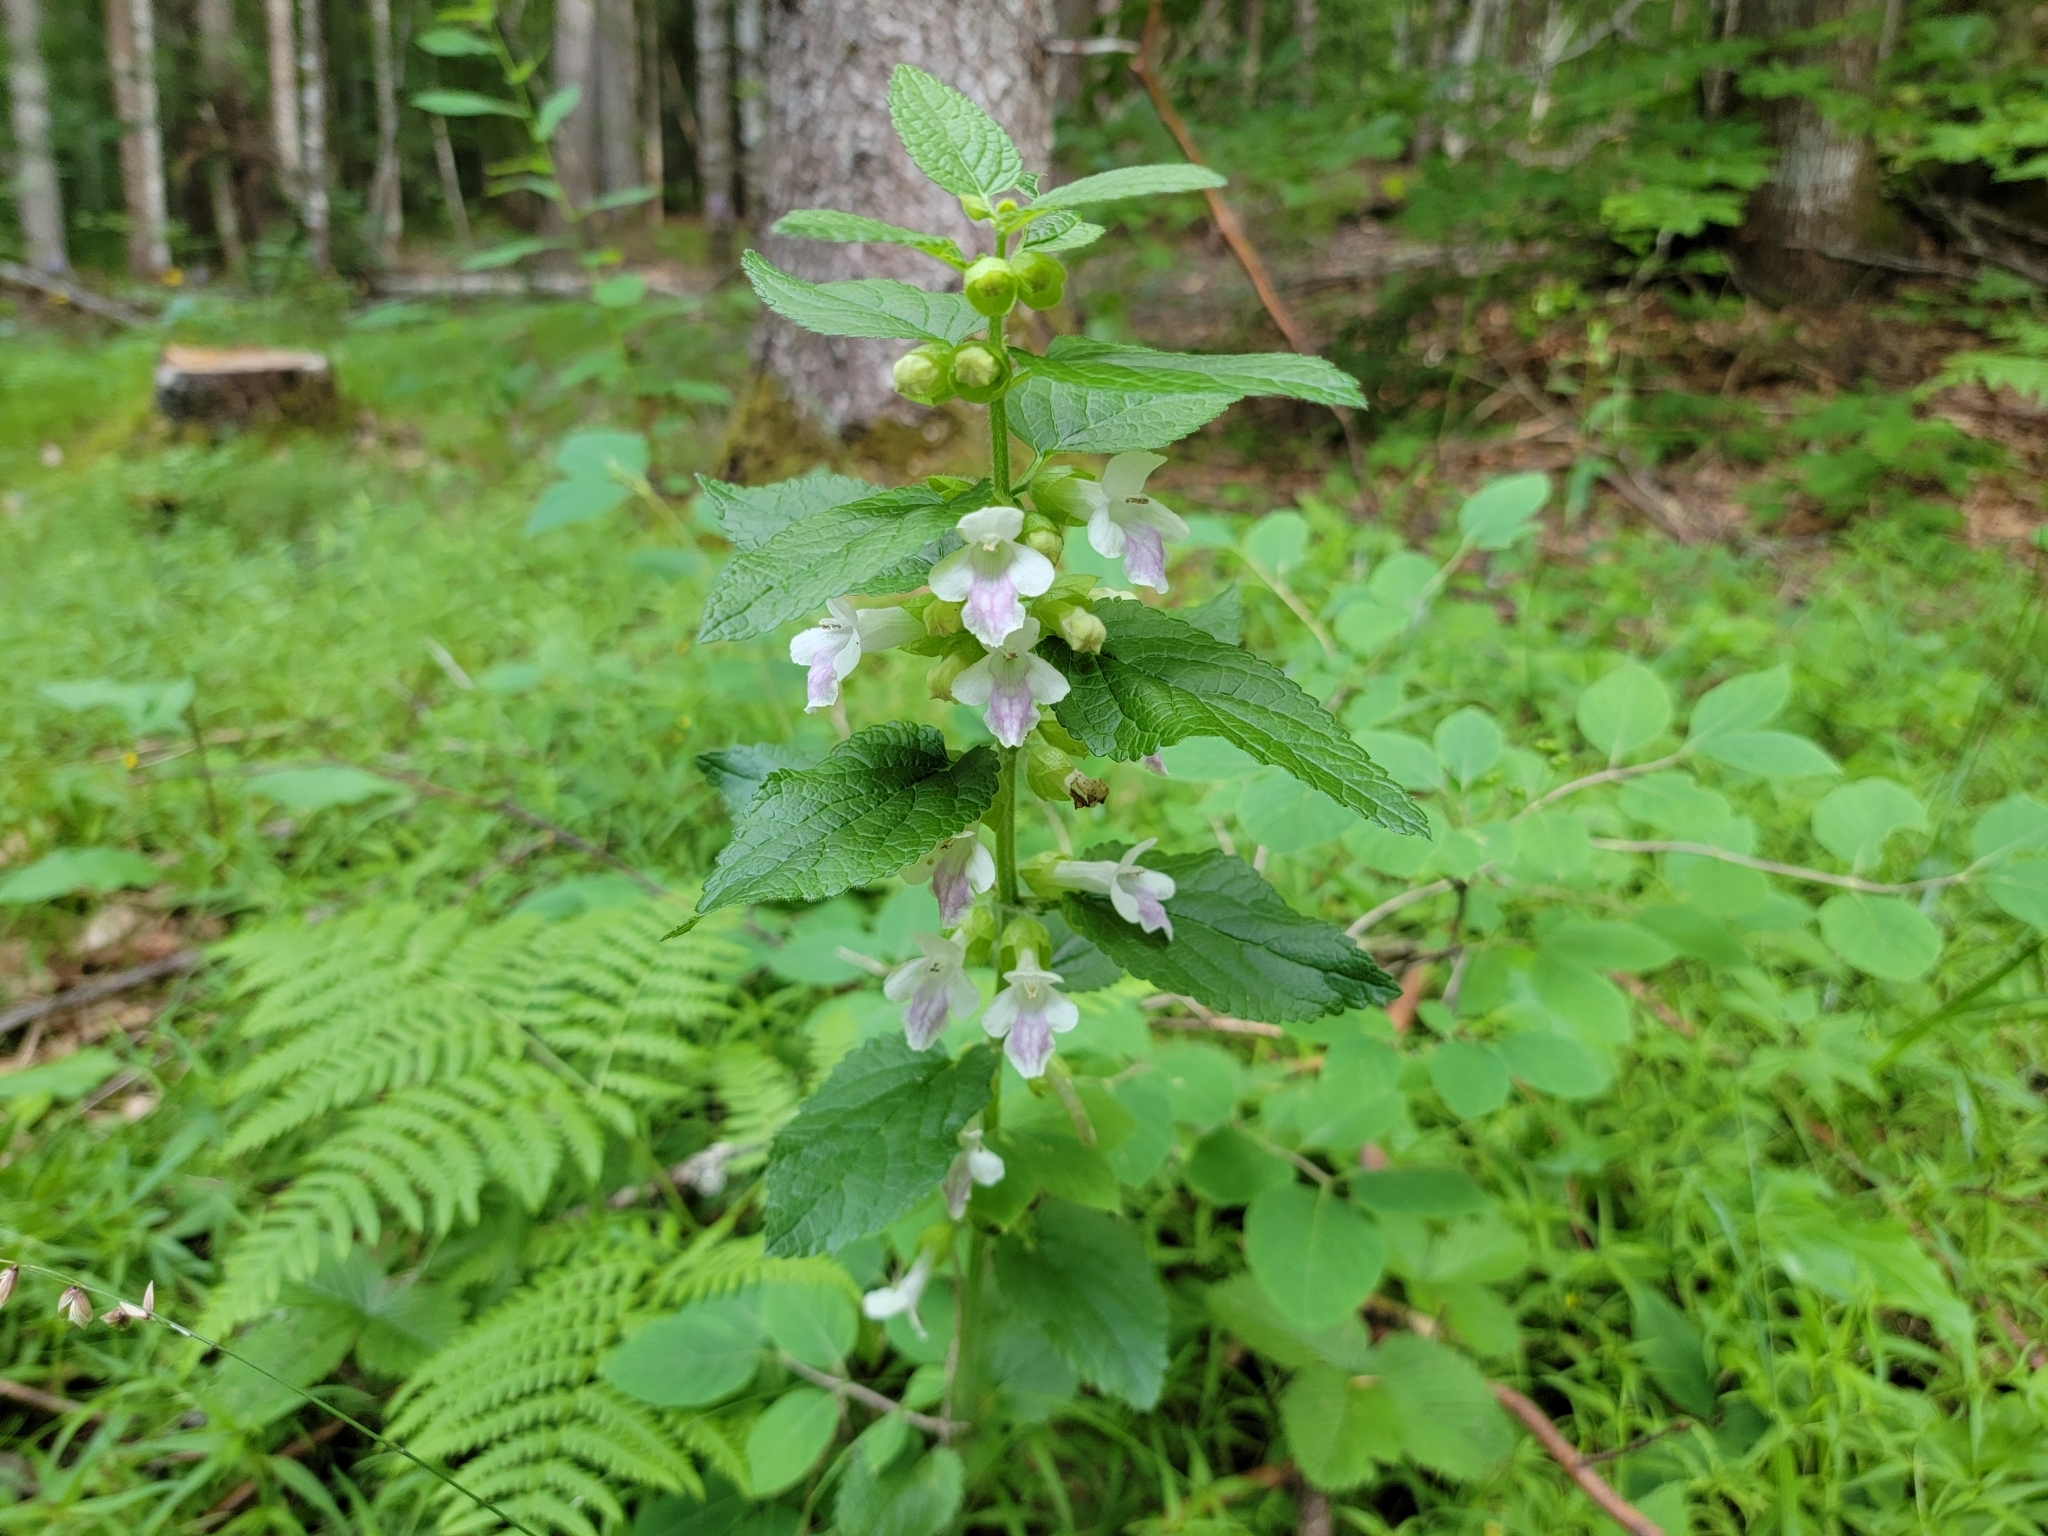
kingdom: Plantae
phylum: Tracheophyta
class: Magnoliopsida
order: Lamiales
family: Lamiaceae
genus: Melittis
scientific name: Melittis melissophyllum
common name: Bastard balm
